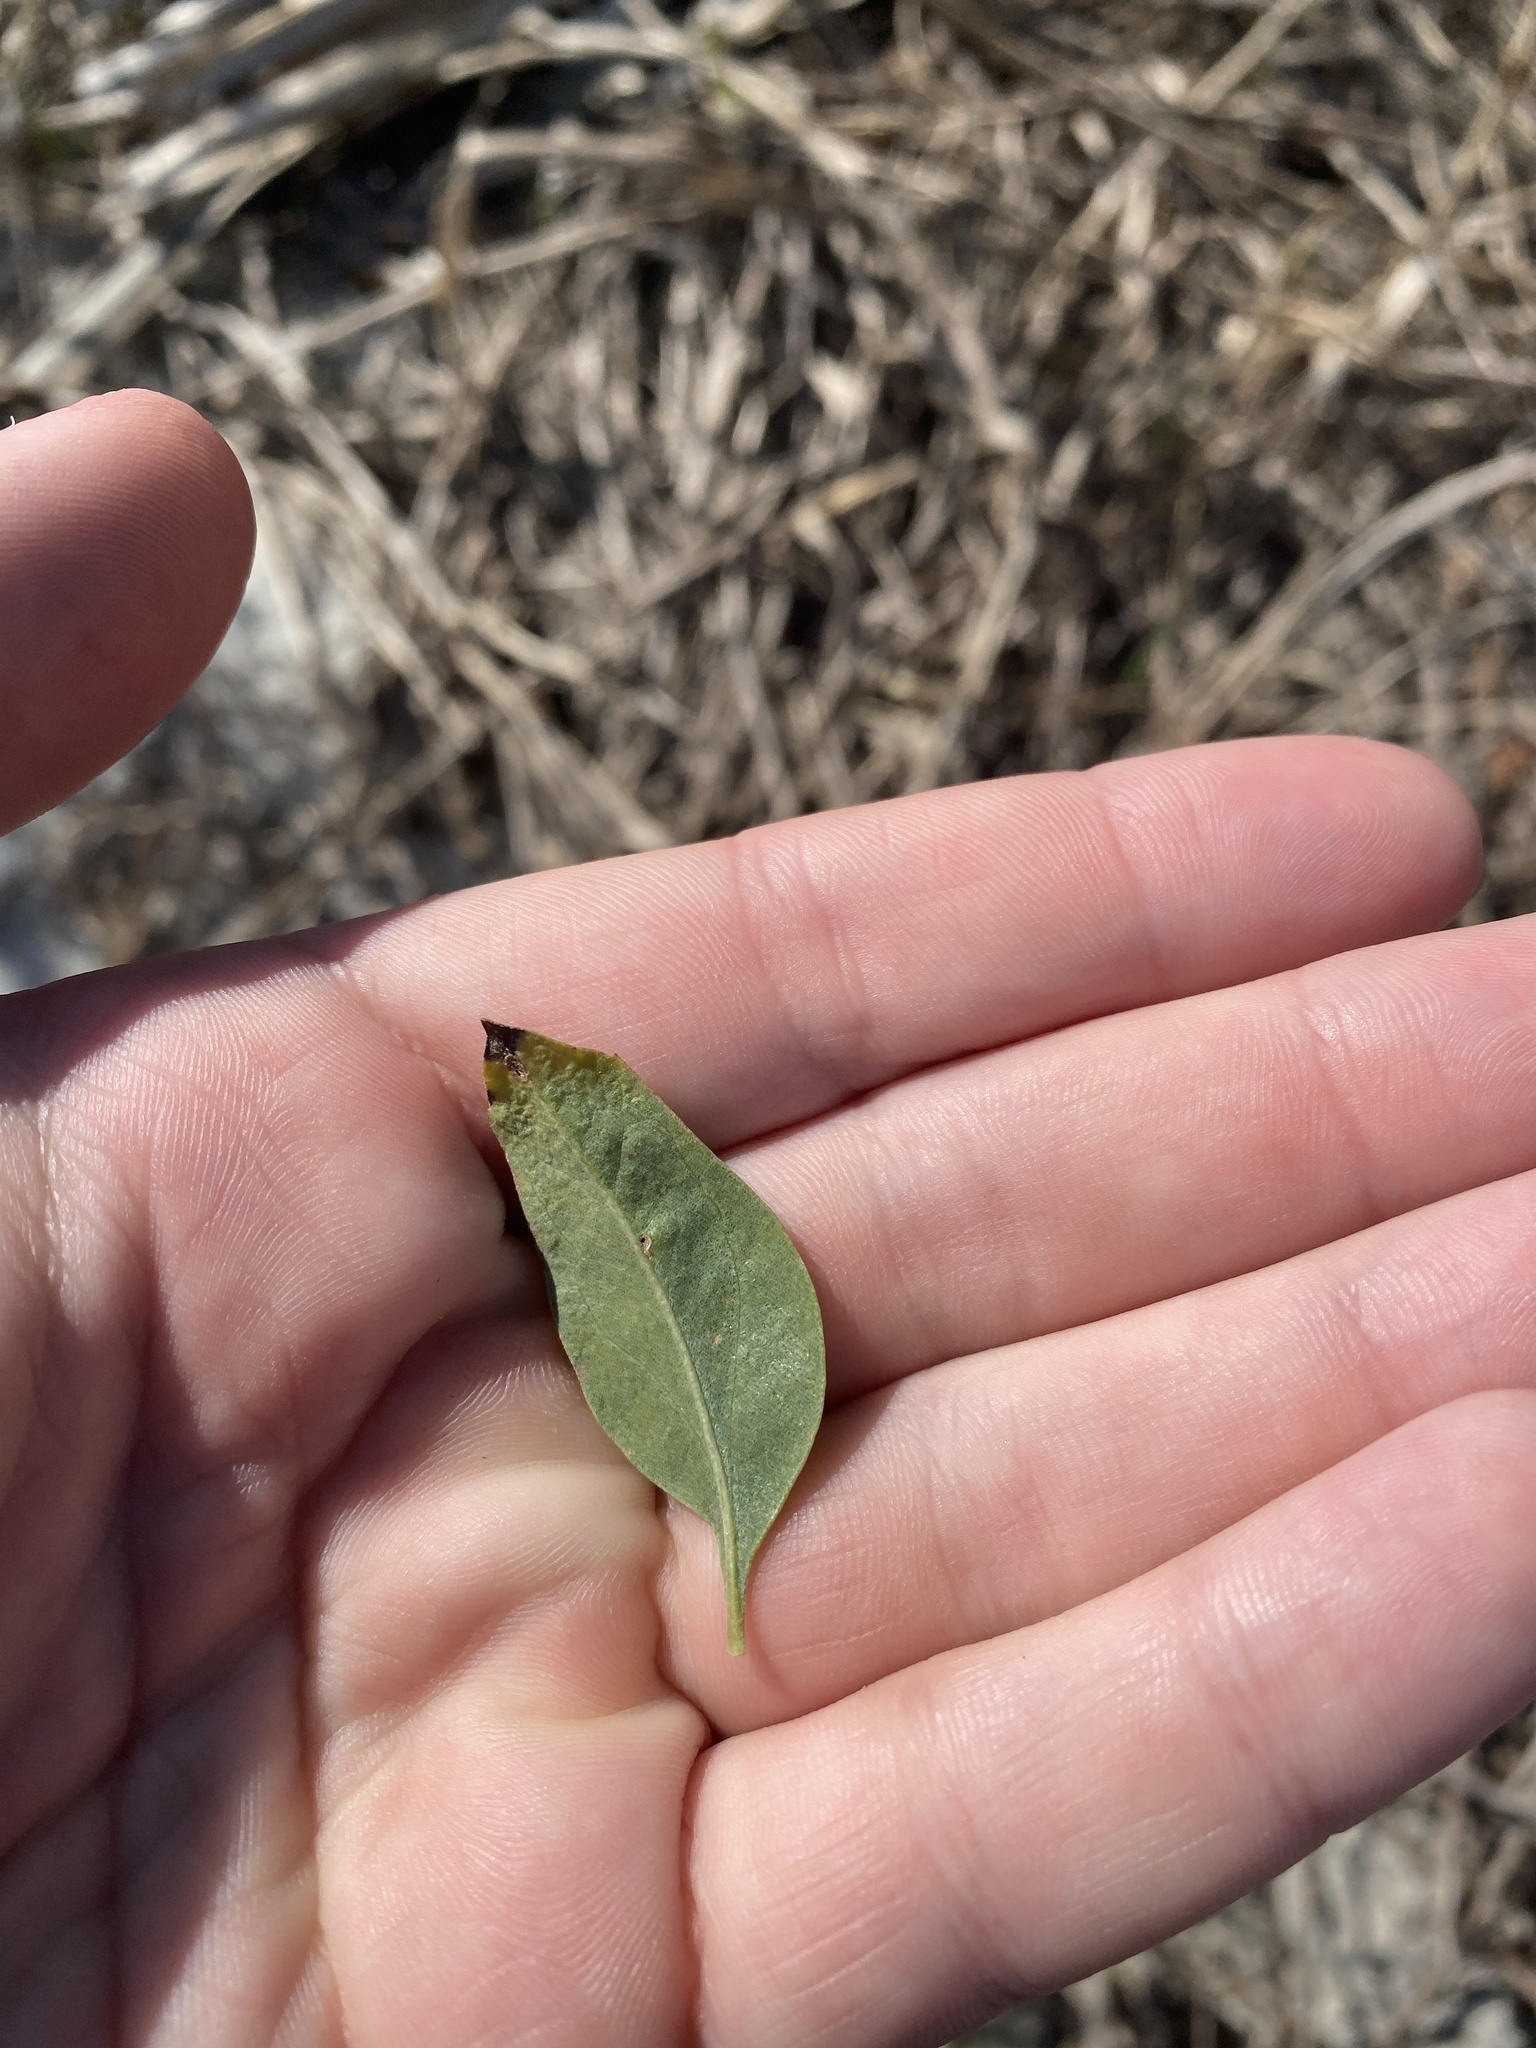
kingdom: Plantae
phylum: Tracheophyta
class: Magnoliopsida
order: Asterales
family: Asteraceae
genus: Baccharis
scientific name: Baccharis halimifolia
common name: Eastern baccharis
